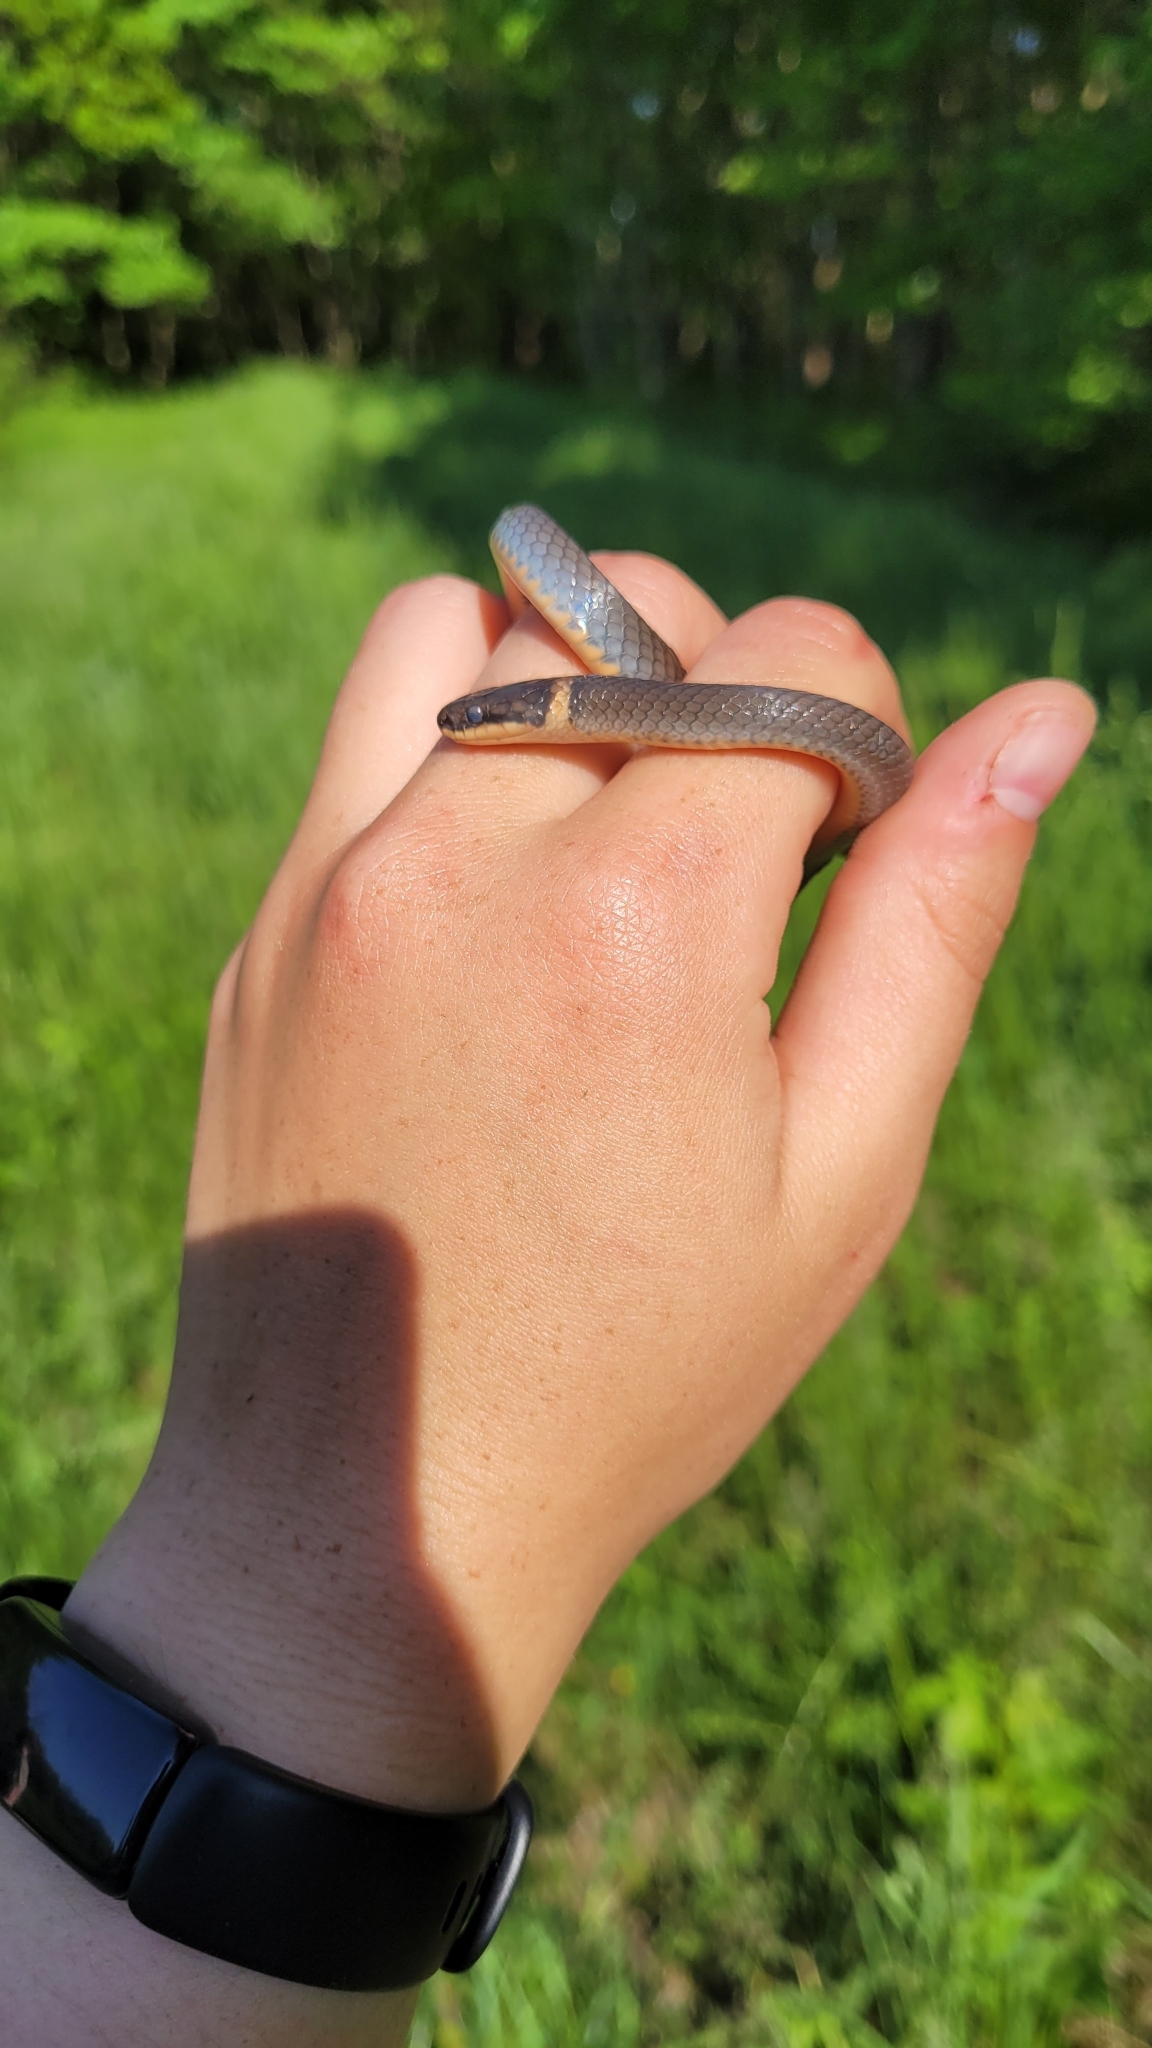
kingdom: Animalia
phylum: Chordata
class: Squamata
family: Colubridae
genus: Diadophis
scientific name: Diadophis punctatus
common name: Ringneck snake
